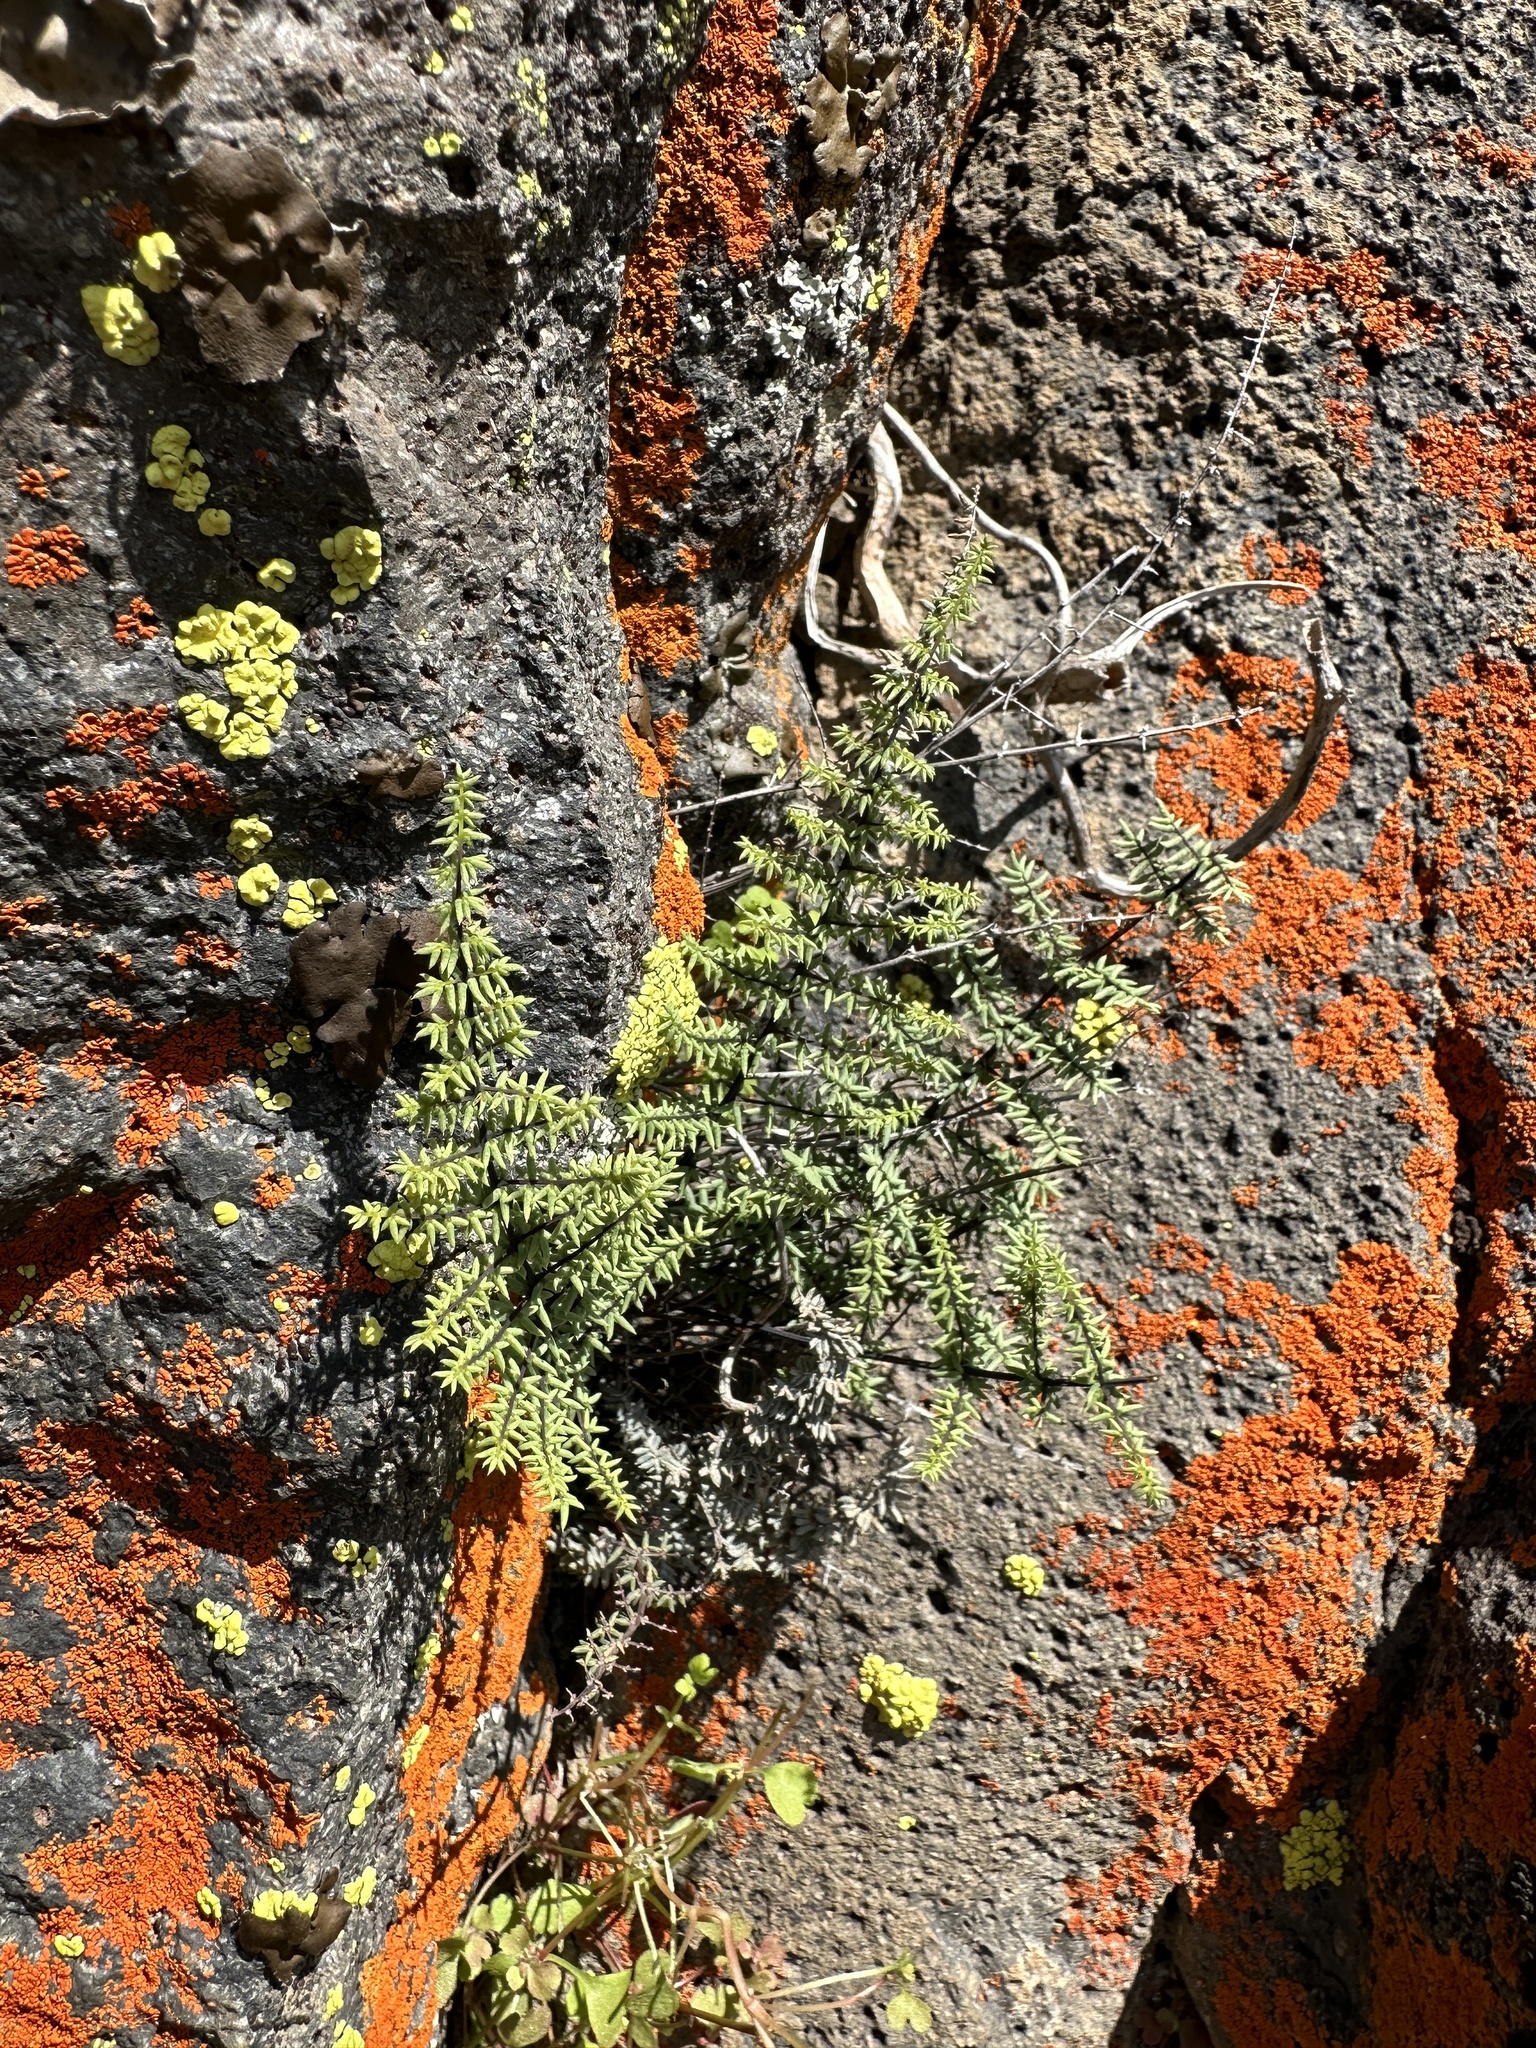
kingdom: Plantae
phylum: Tracheophyta
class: Polypodiopsida
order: Polypodiales
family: Pteridaceae
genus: Pellaea
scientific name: Pellaea mucronata
